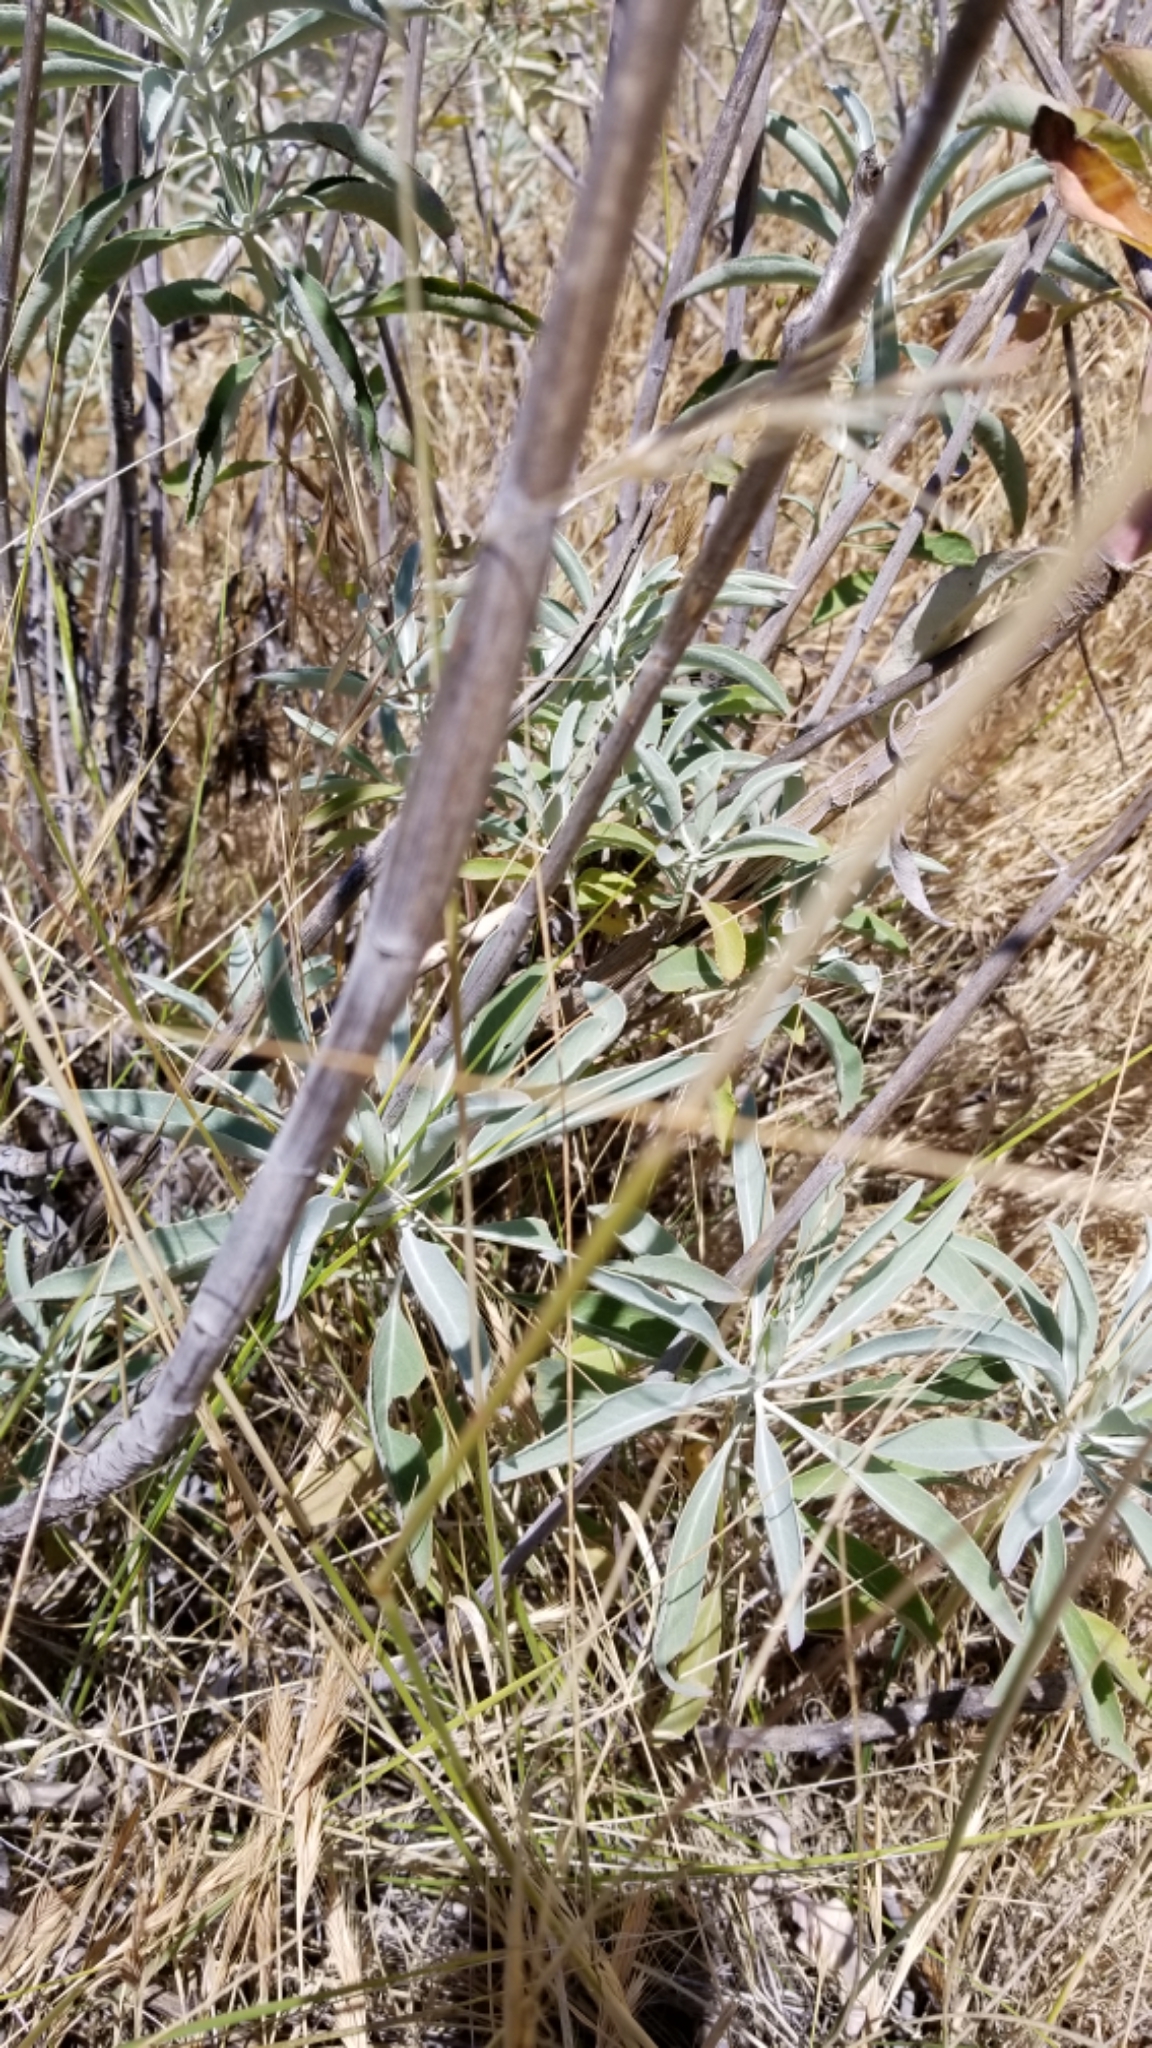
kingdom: Plantae
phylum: Tracheophyta
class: Magnoliopsida
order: Lamiales
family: Lamiaceae
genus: Salvia
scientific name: Salvia apiana
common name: White sage
